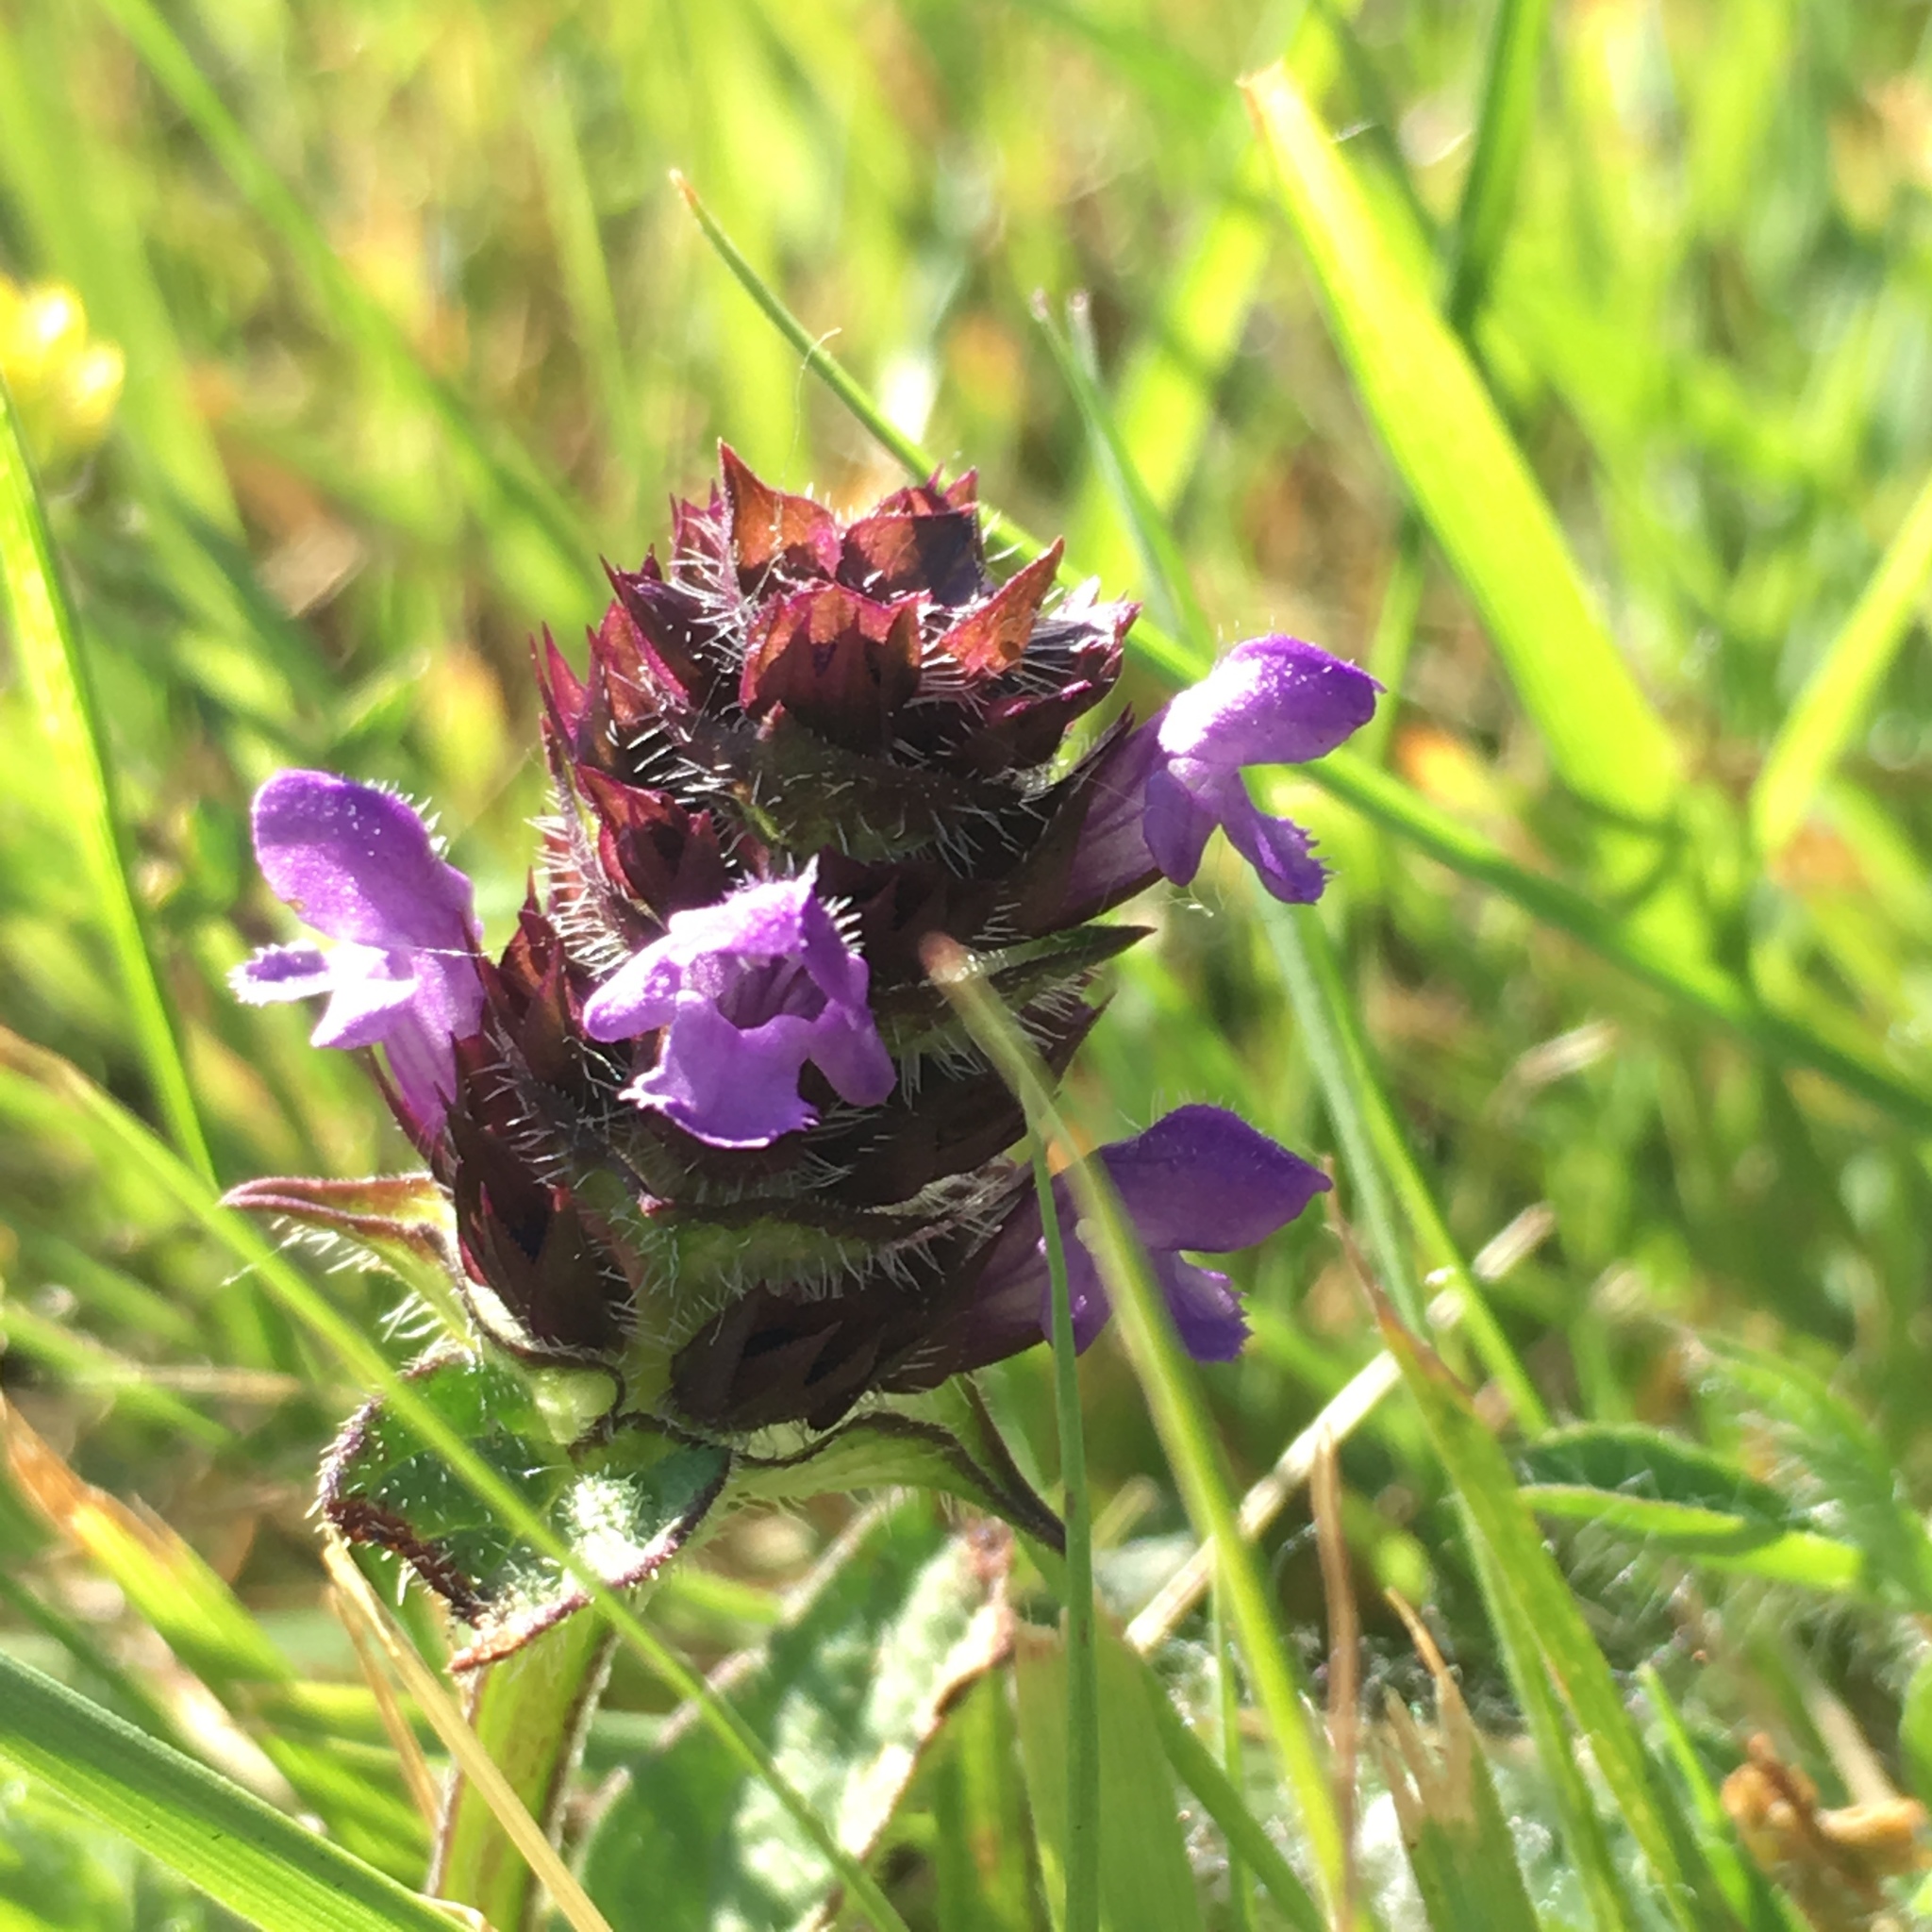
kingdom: Plantae
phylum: Tracheophyta
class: Magnoliopsida
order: Lamiales
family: Lamiaceae
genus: Prunella
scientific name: Prunella vulgaris
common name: Heal-all
